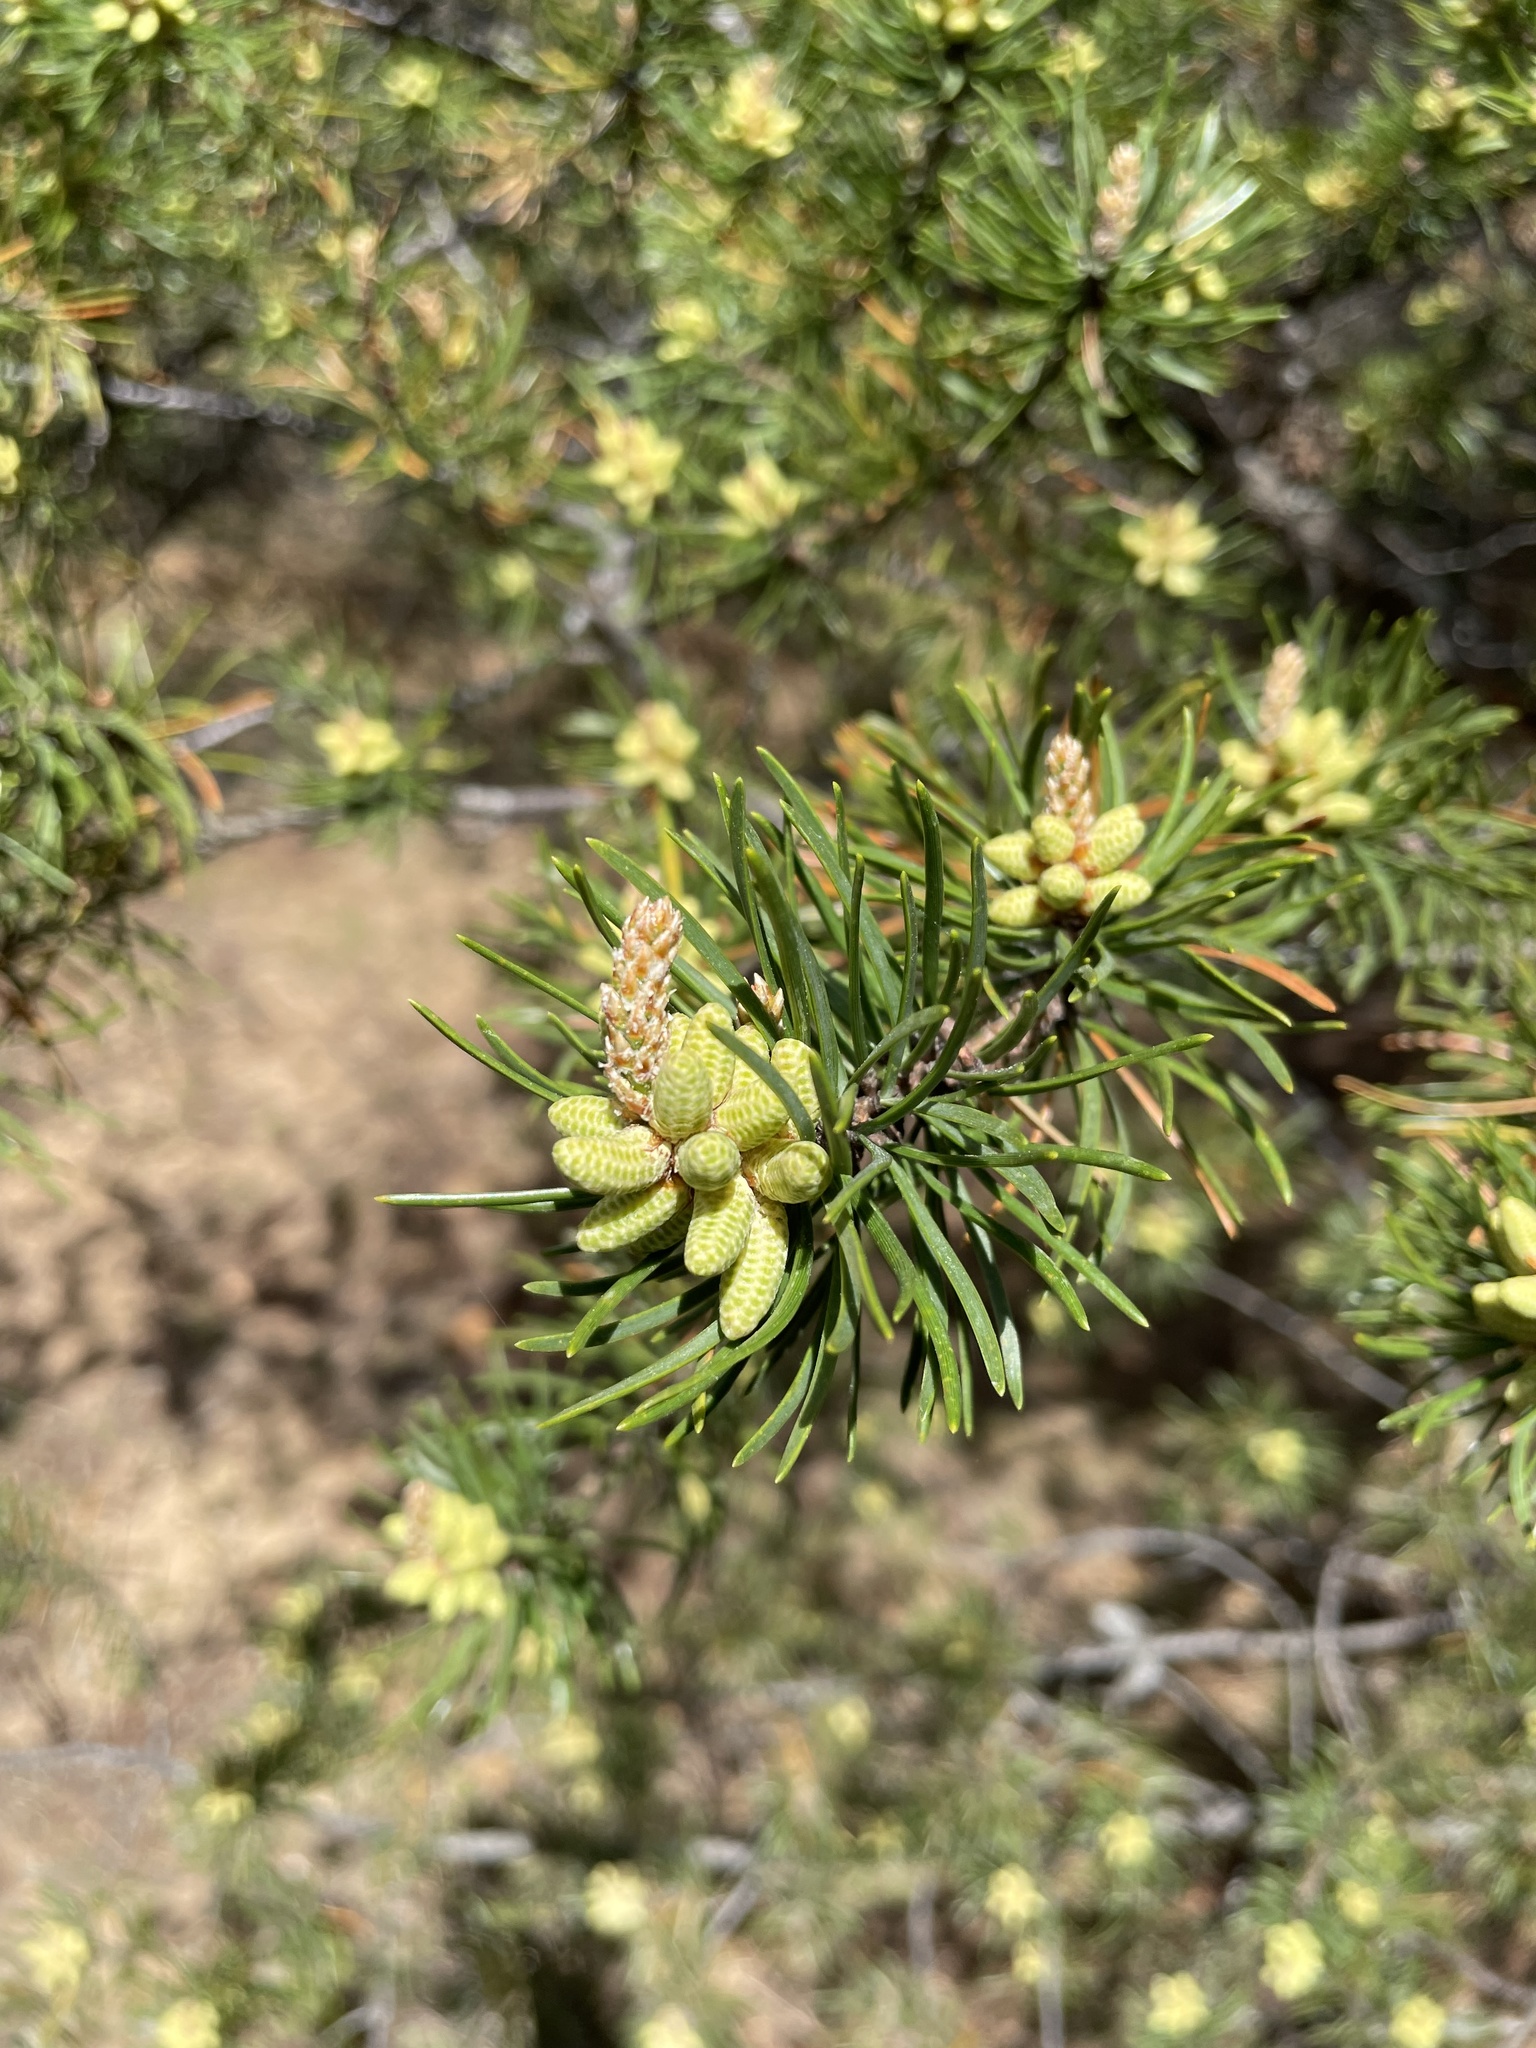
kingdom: Plantae
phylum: Tracheophyta
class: Pinopsida
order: Pinales
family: Pinaceae
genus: Pinus
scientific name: Pinus banksiana
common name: Jack pine
